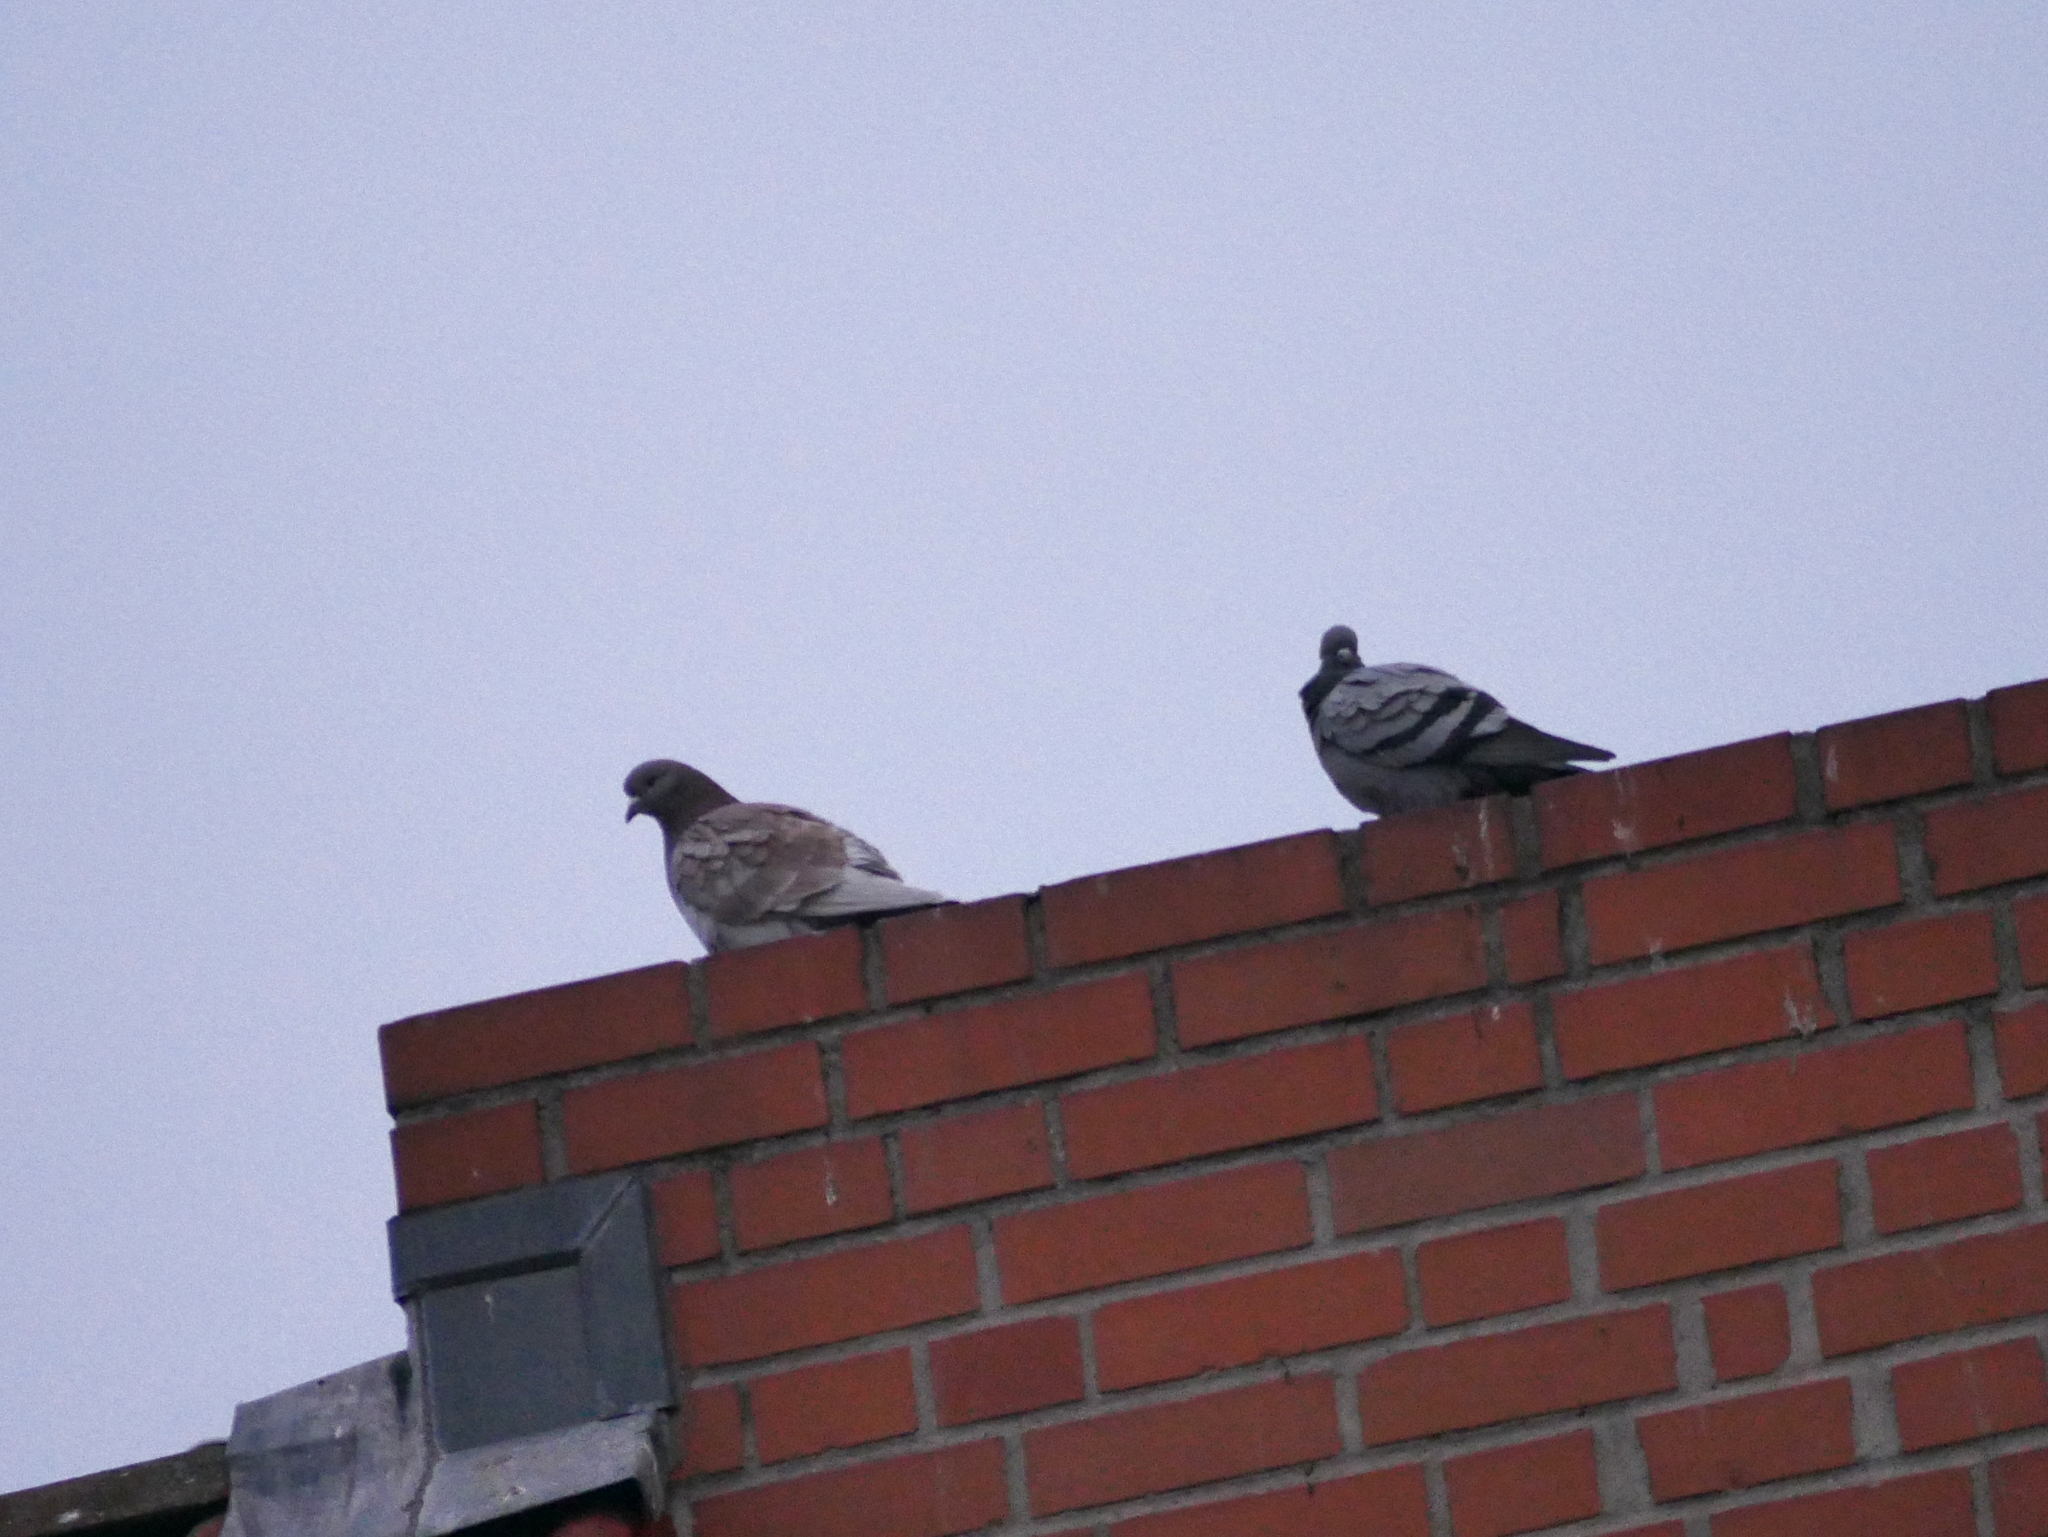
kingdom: Animalia
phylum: Chordata
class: Aves
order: Columbiformes
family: Columbidae
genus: Columba
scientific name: Columba livia
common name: Rock pigeon
